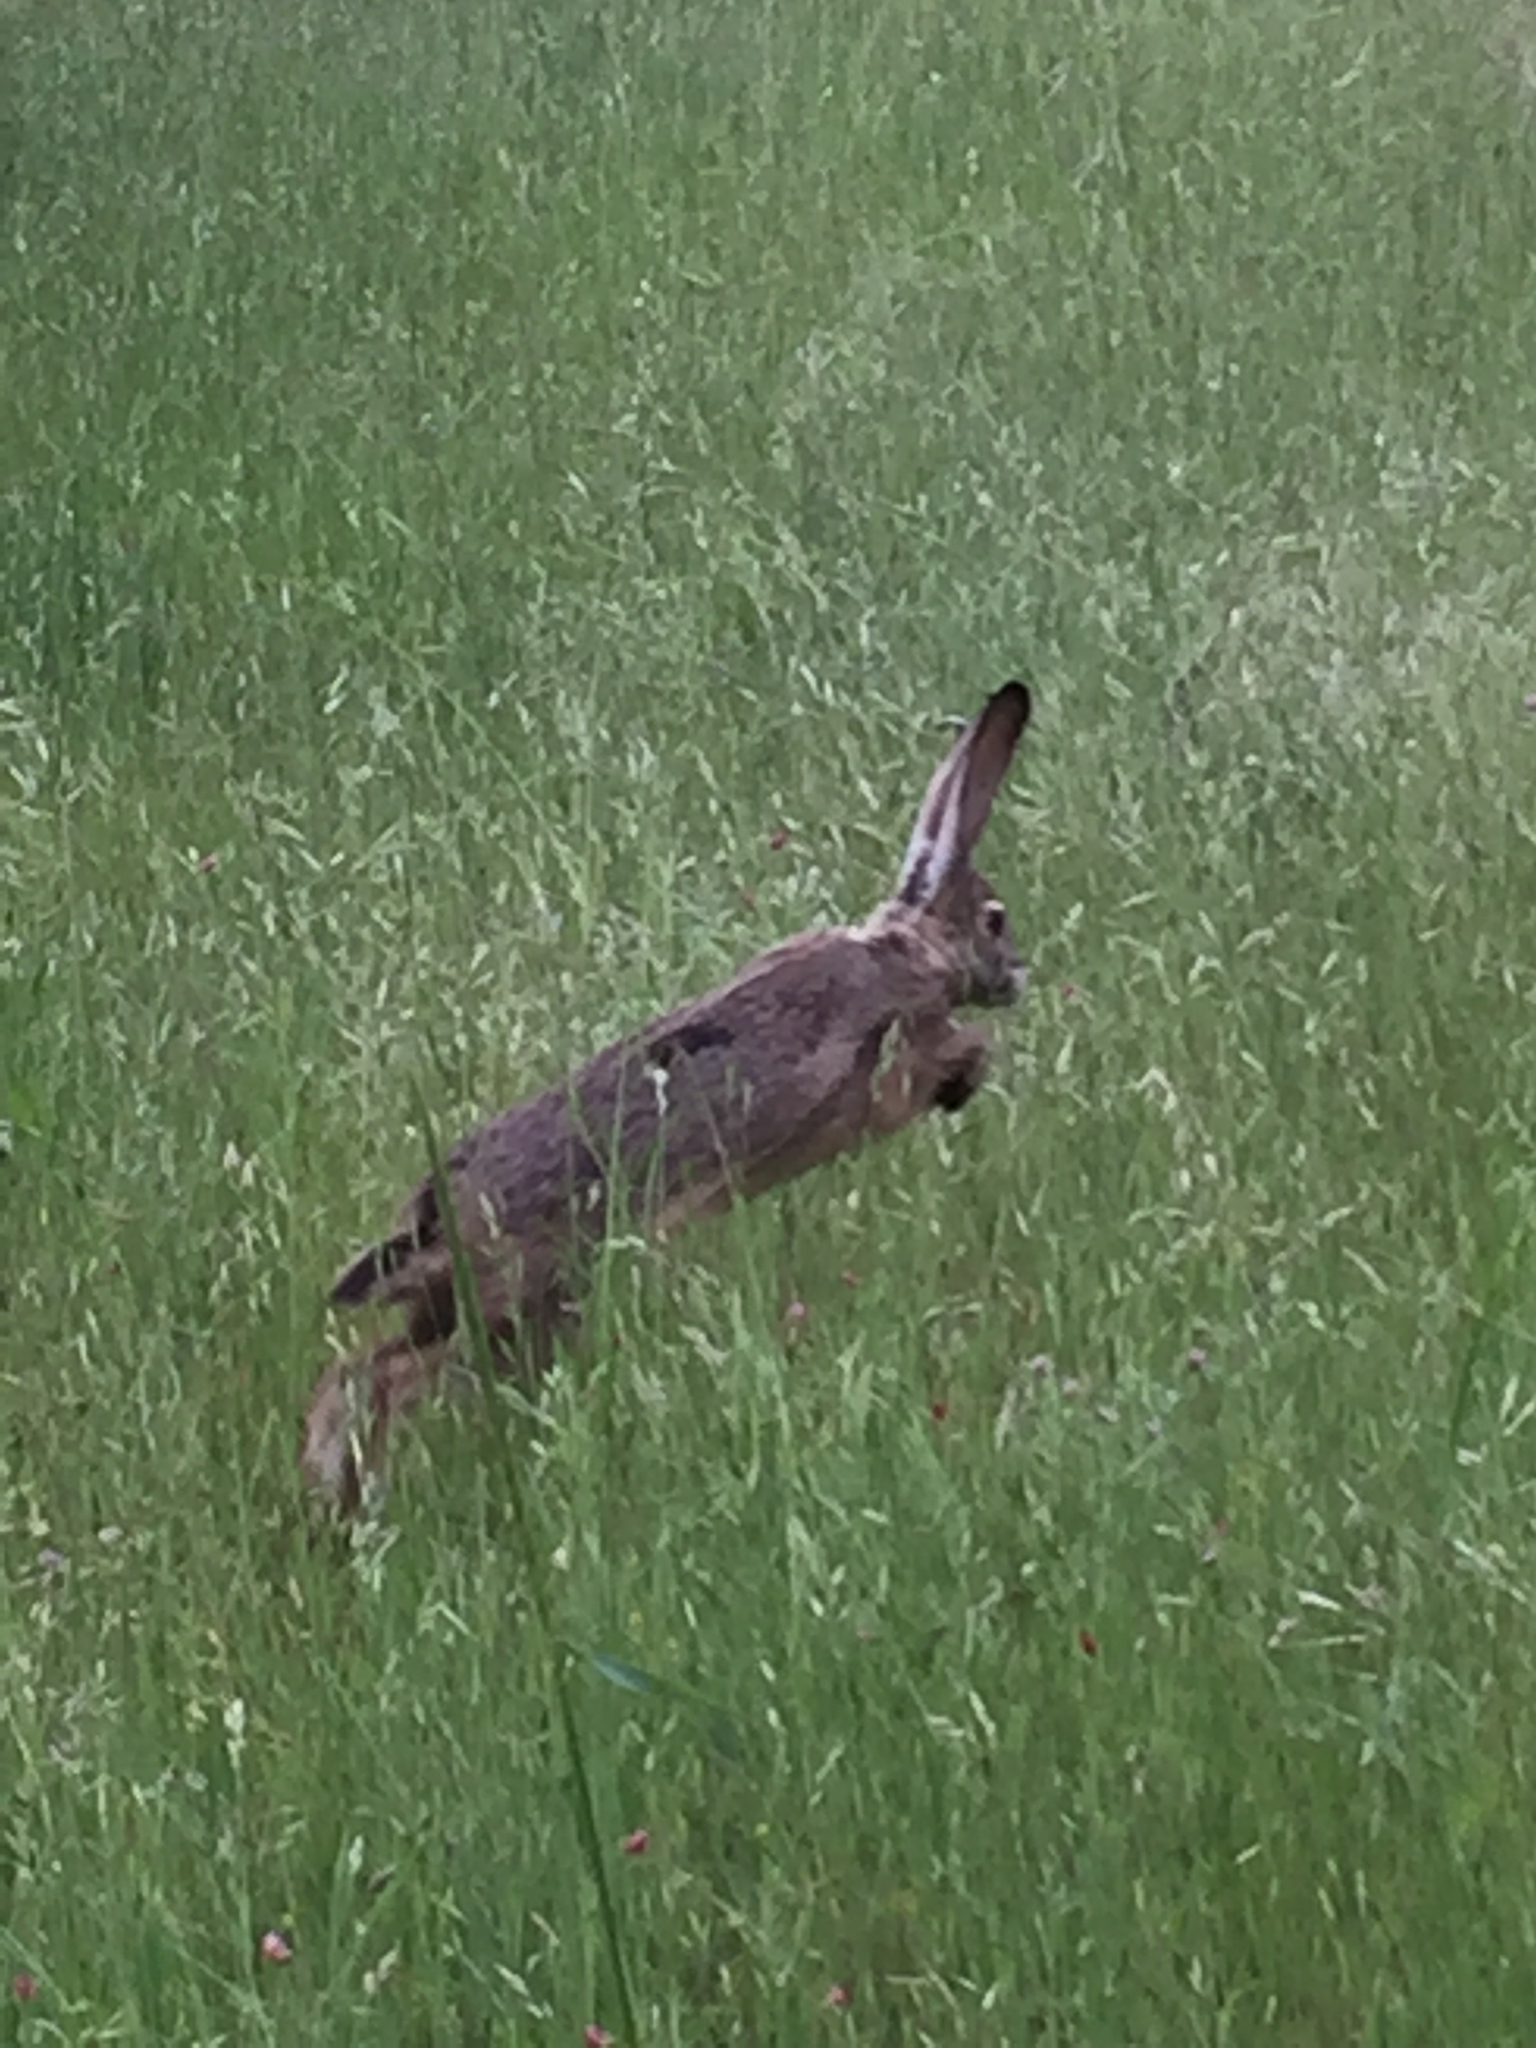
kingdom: Animalia
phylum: Chordata
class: Mammalia
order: Lagomorpha
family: Leporidae
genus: Lepus
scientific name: Lepus californicus
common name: Black-tailed jackrabbit
